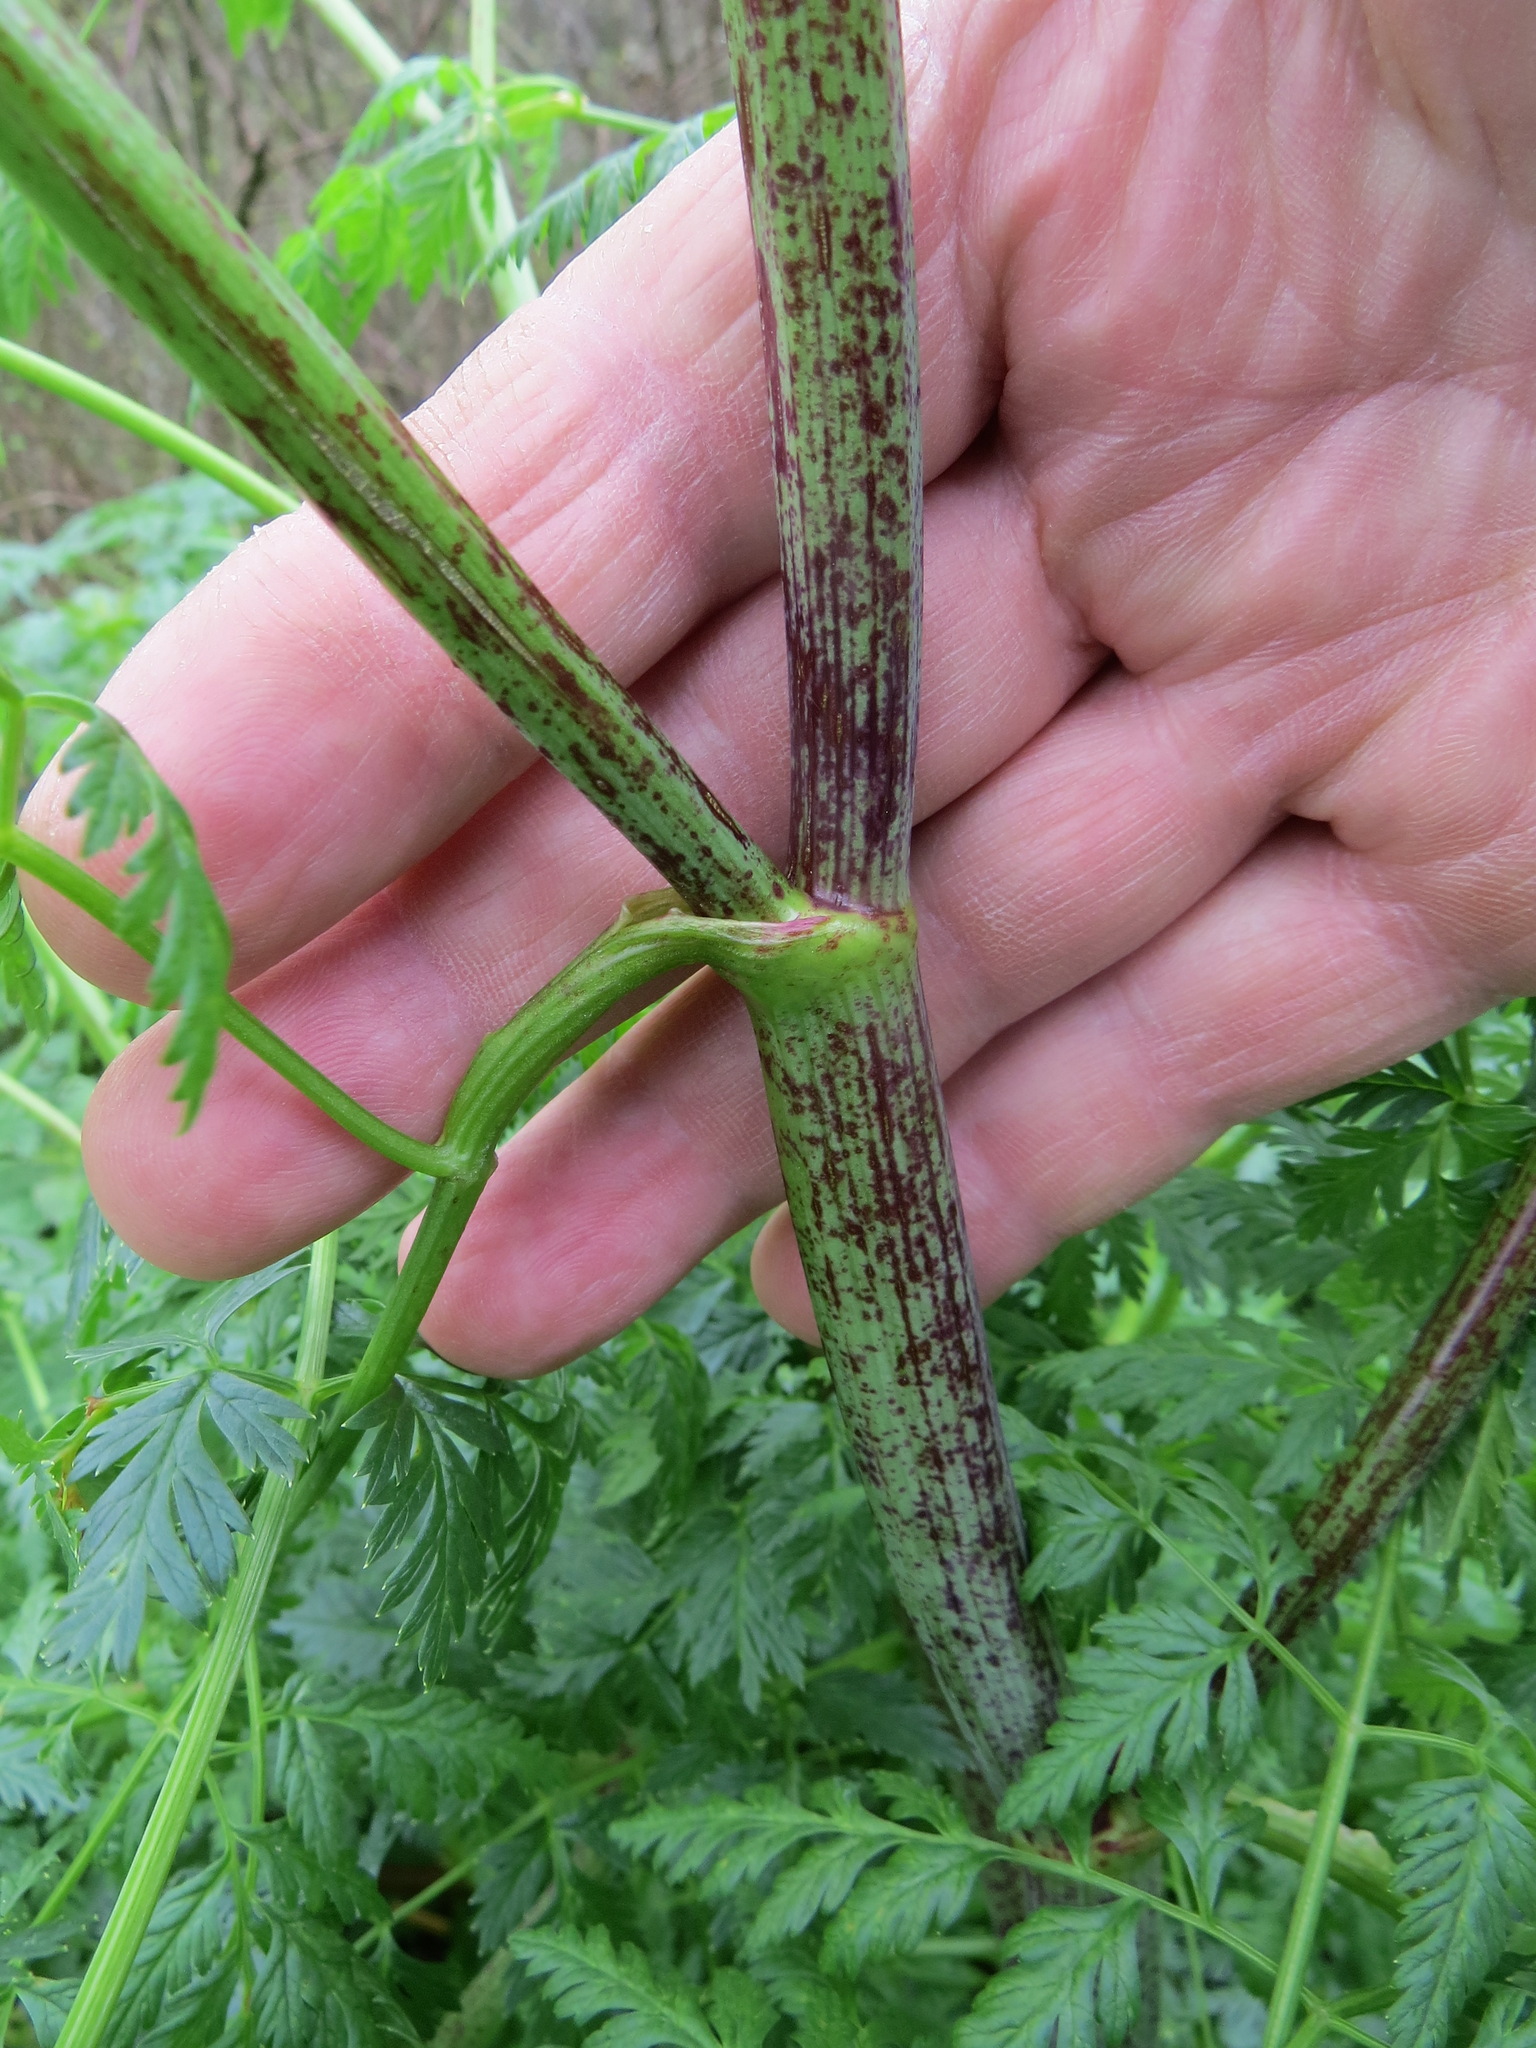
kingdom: Plantae
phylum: Tracheophyta
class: Magnoliopsida
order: Apiales
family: Apiaceae
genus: Conium
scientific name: Conium maculatum
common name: Hemlock
